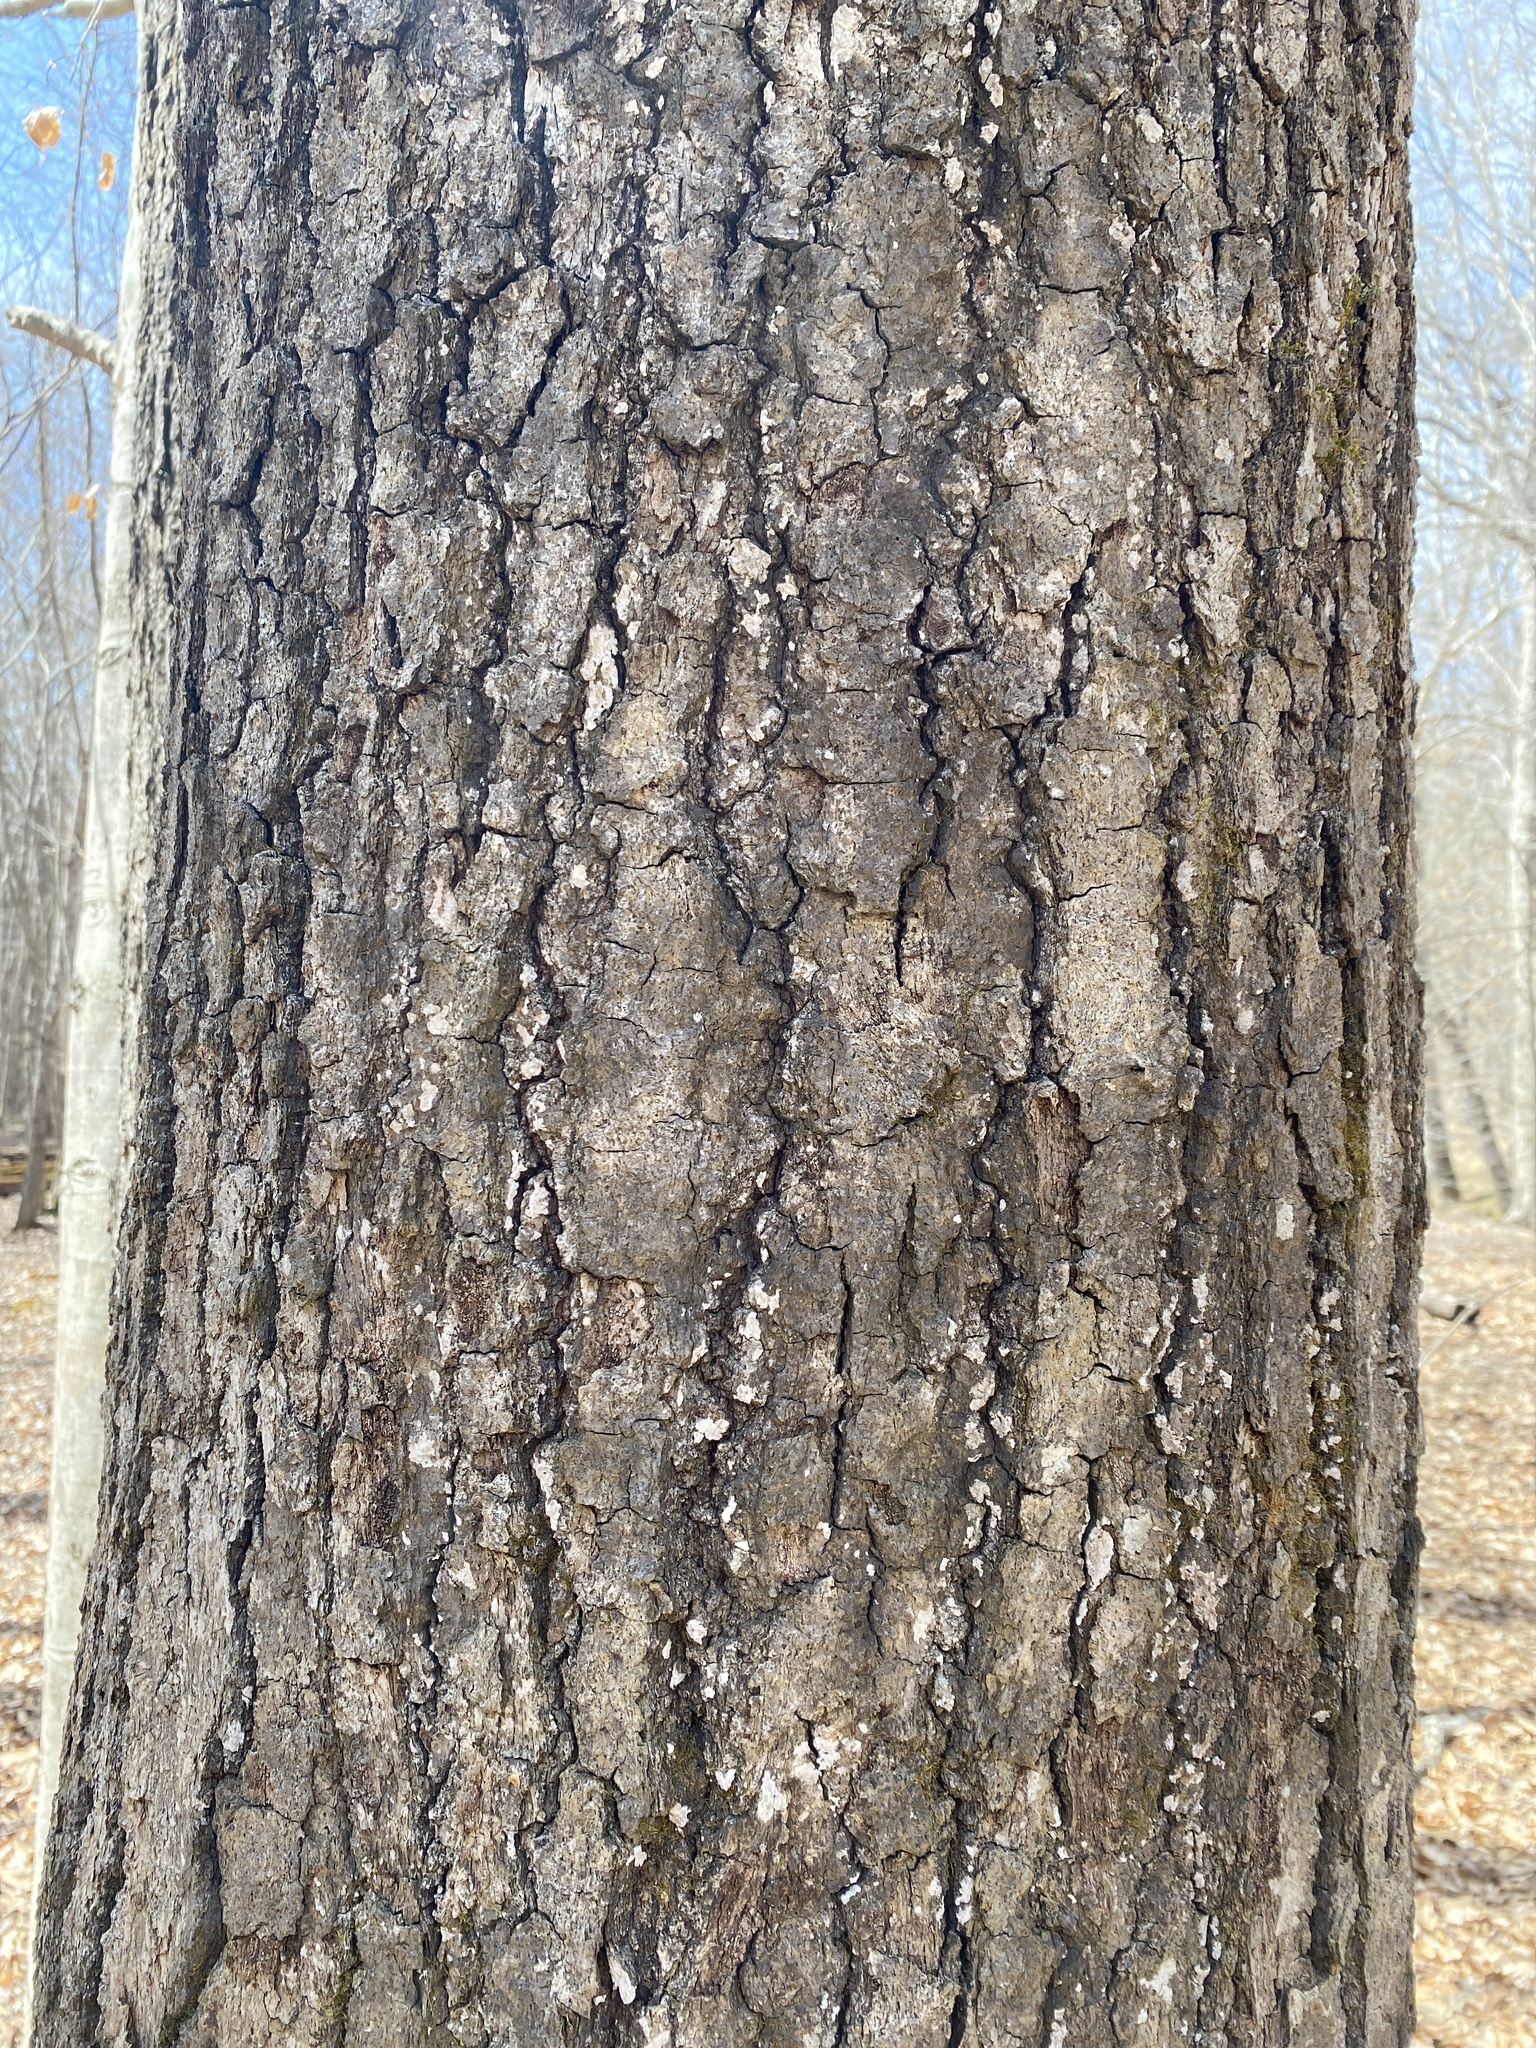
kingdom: Plantae
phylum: Tracheophyta
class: Magnoliopsida
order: Fagales
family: Fagaceae
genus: Quercus
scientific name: Quercus falcata
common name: Southern red oak
